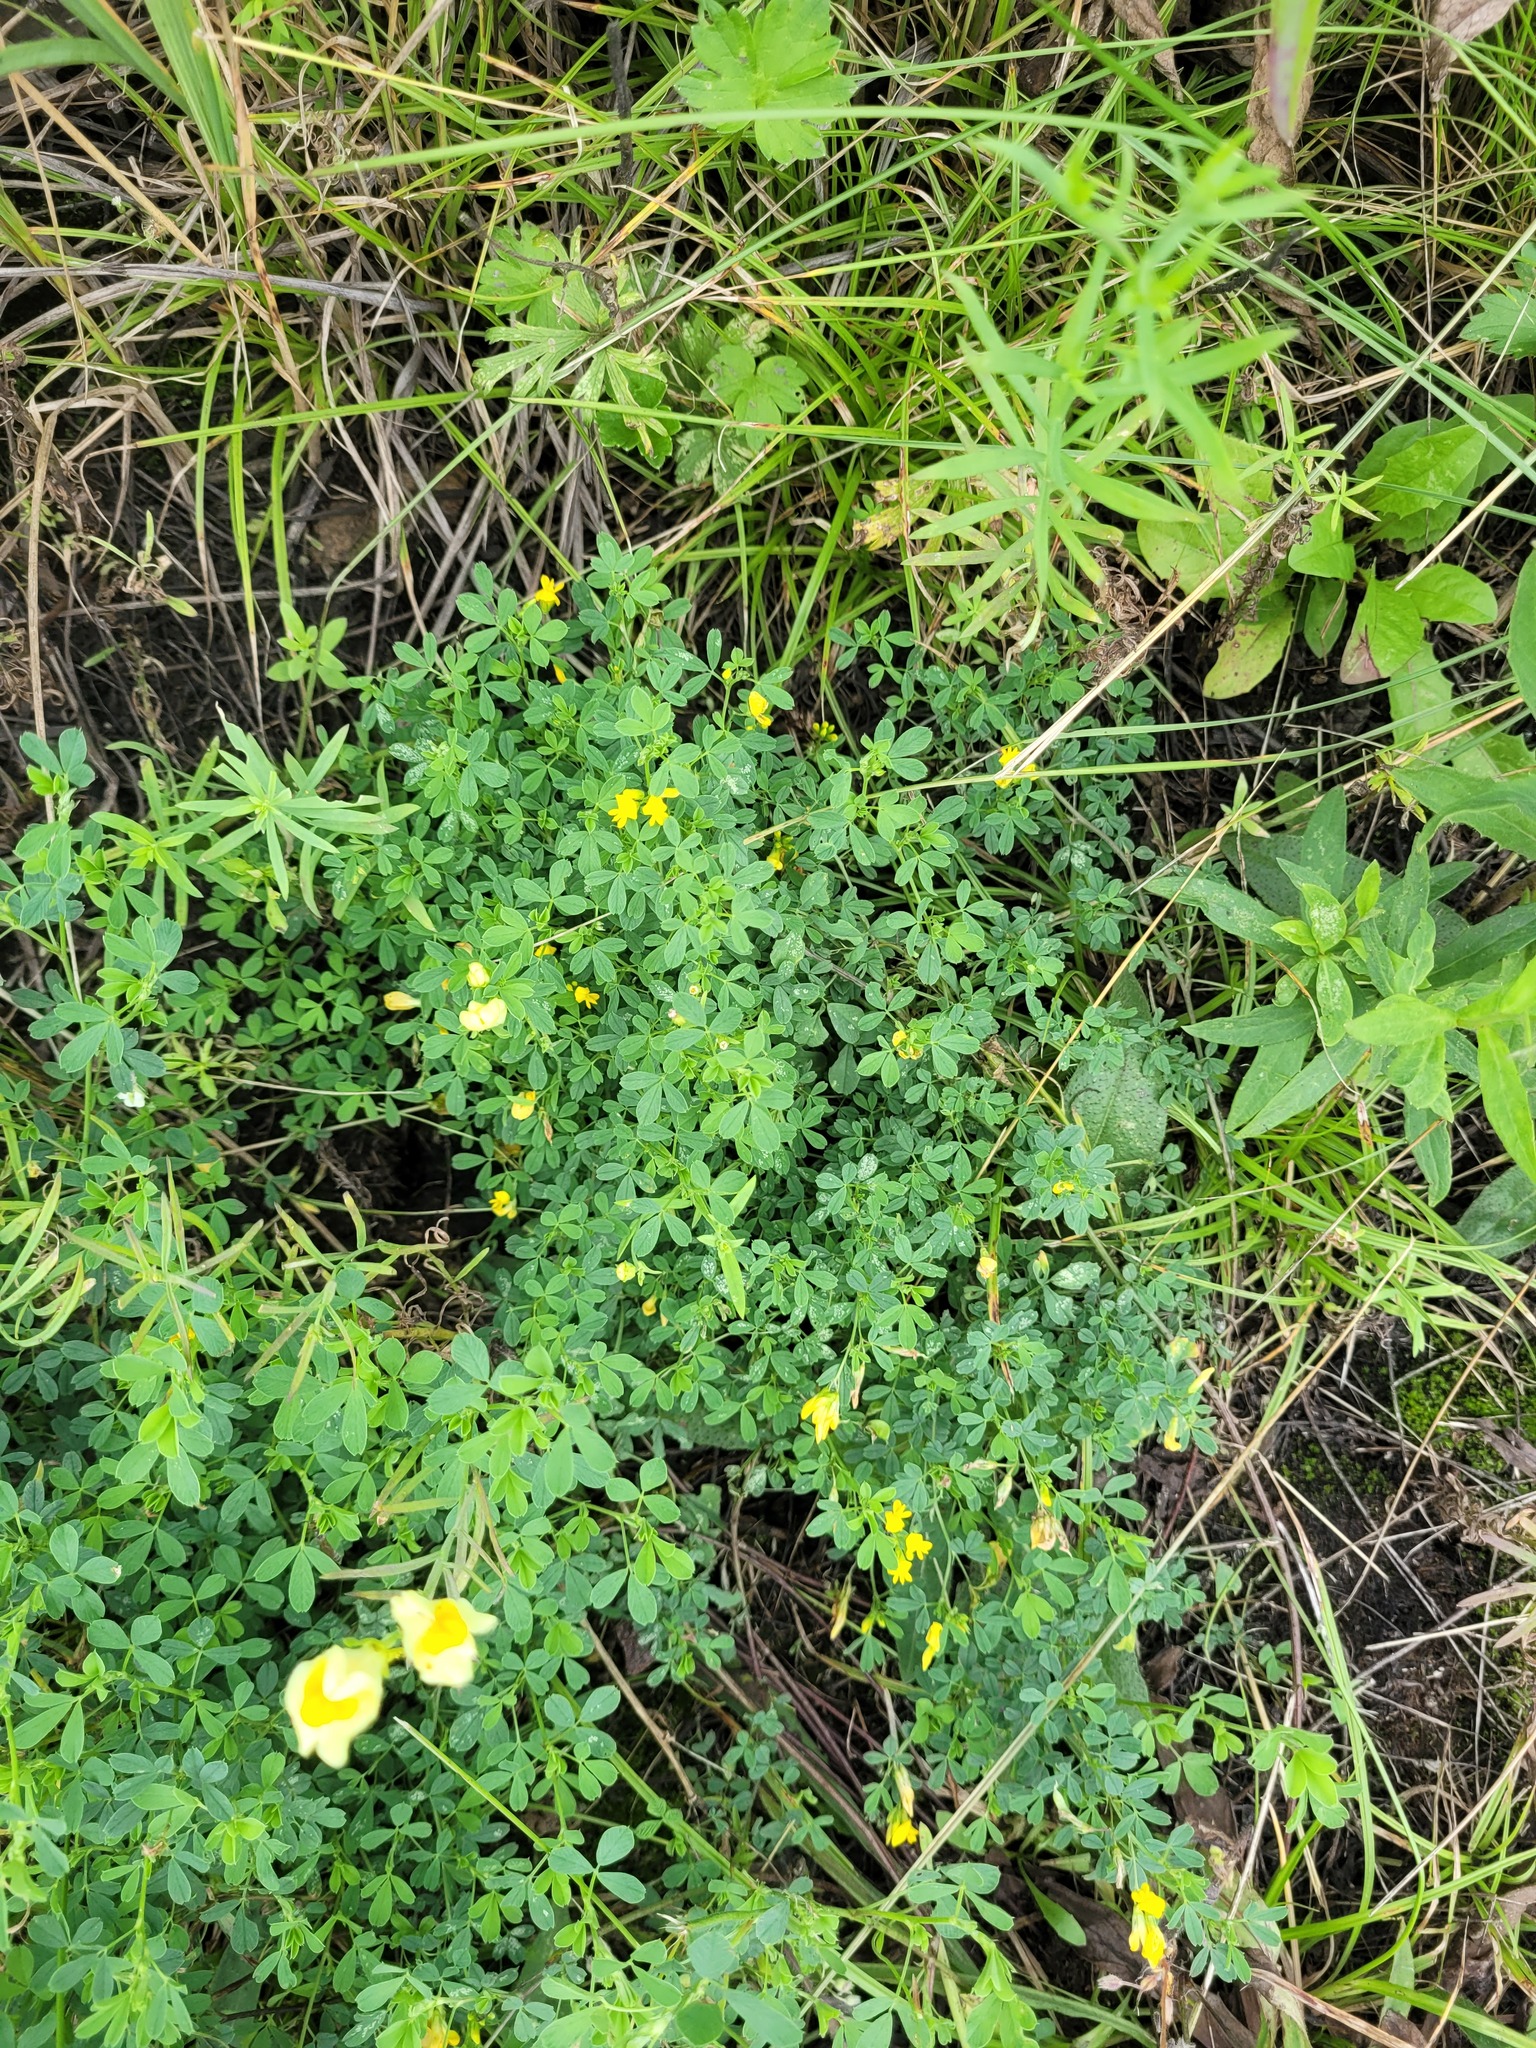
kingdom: Plantae
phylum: Tracheophyta
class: Magnoliopsida
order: Fabales
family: Fabaceae
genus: Medicago
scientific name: Medicago falcata
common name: Sickle medick
